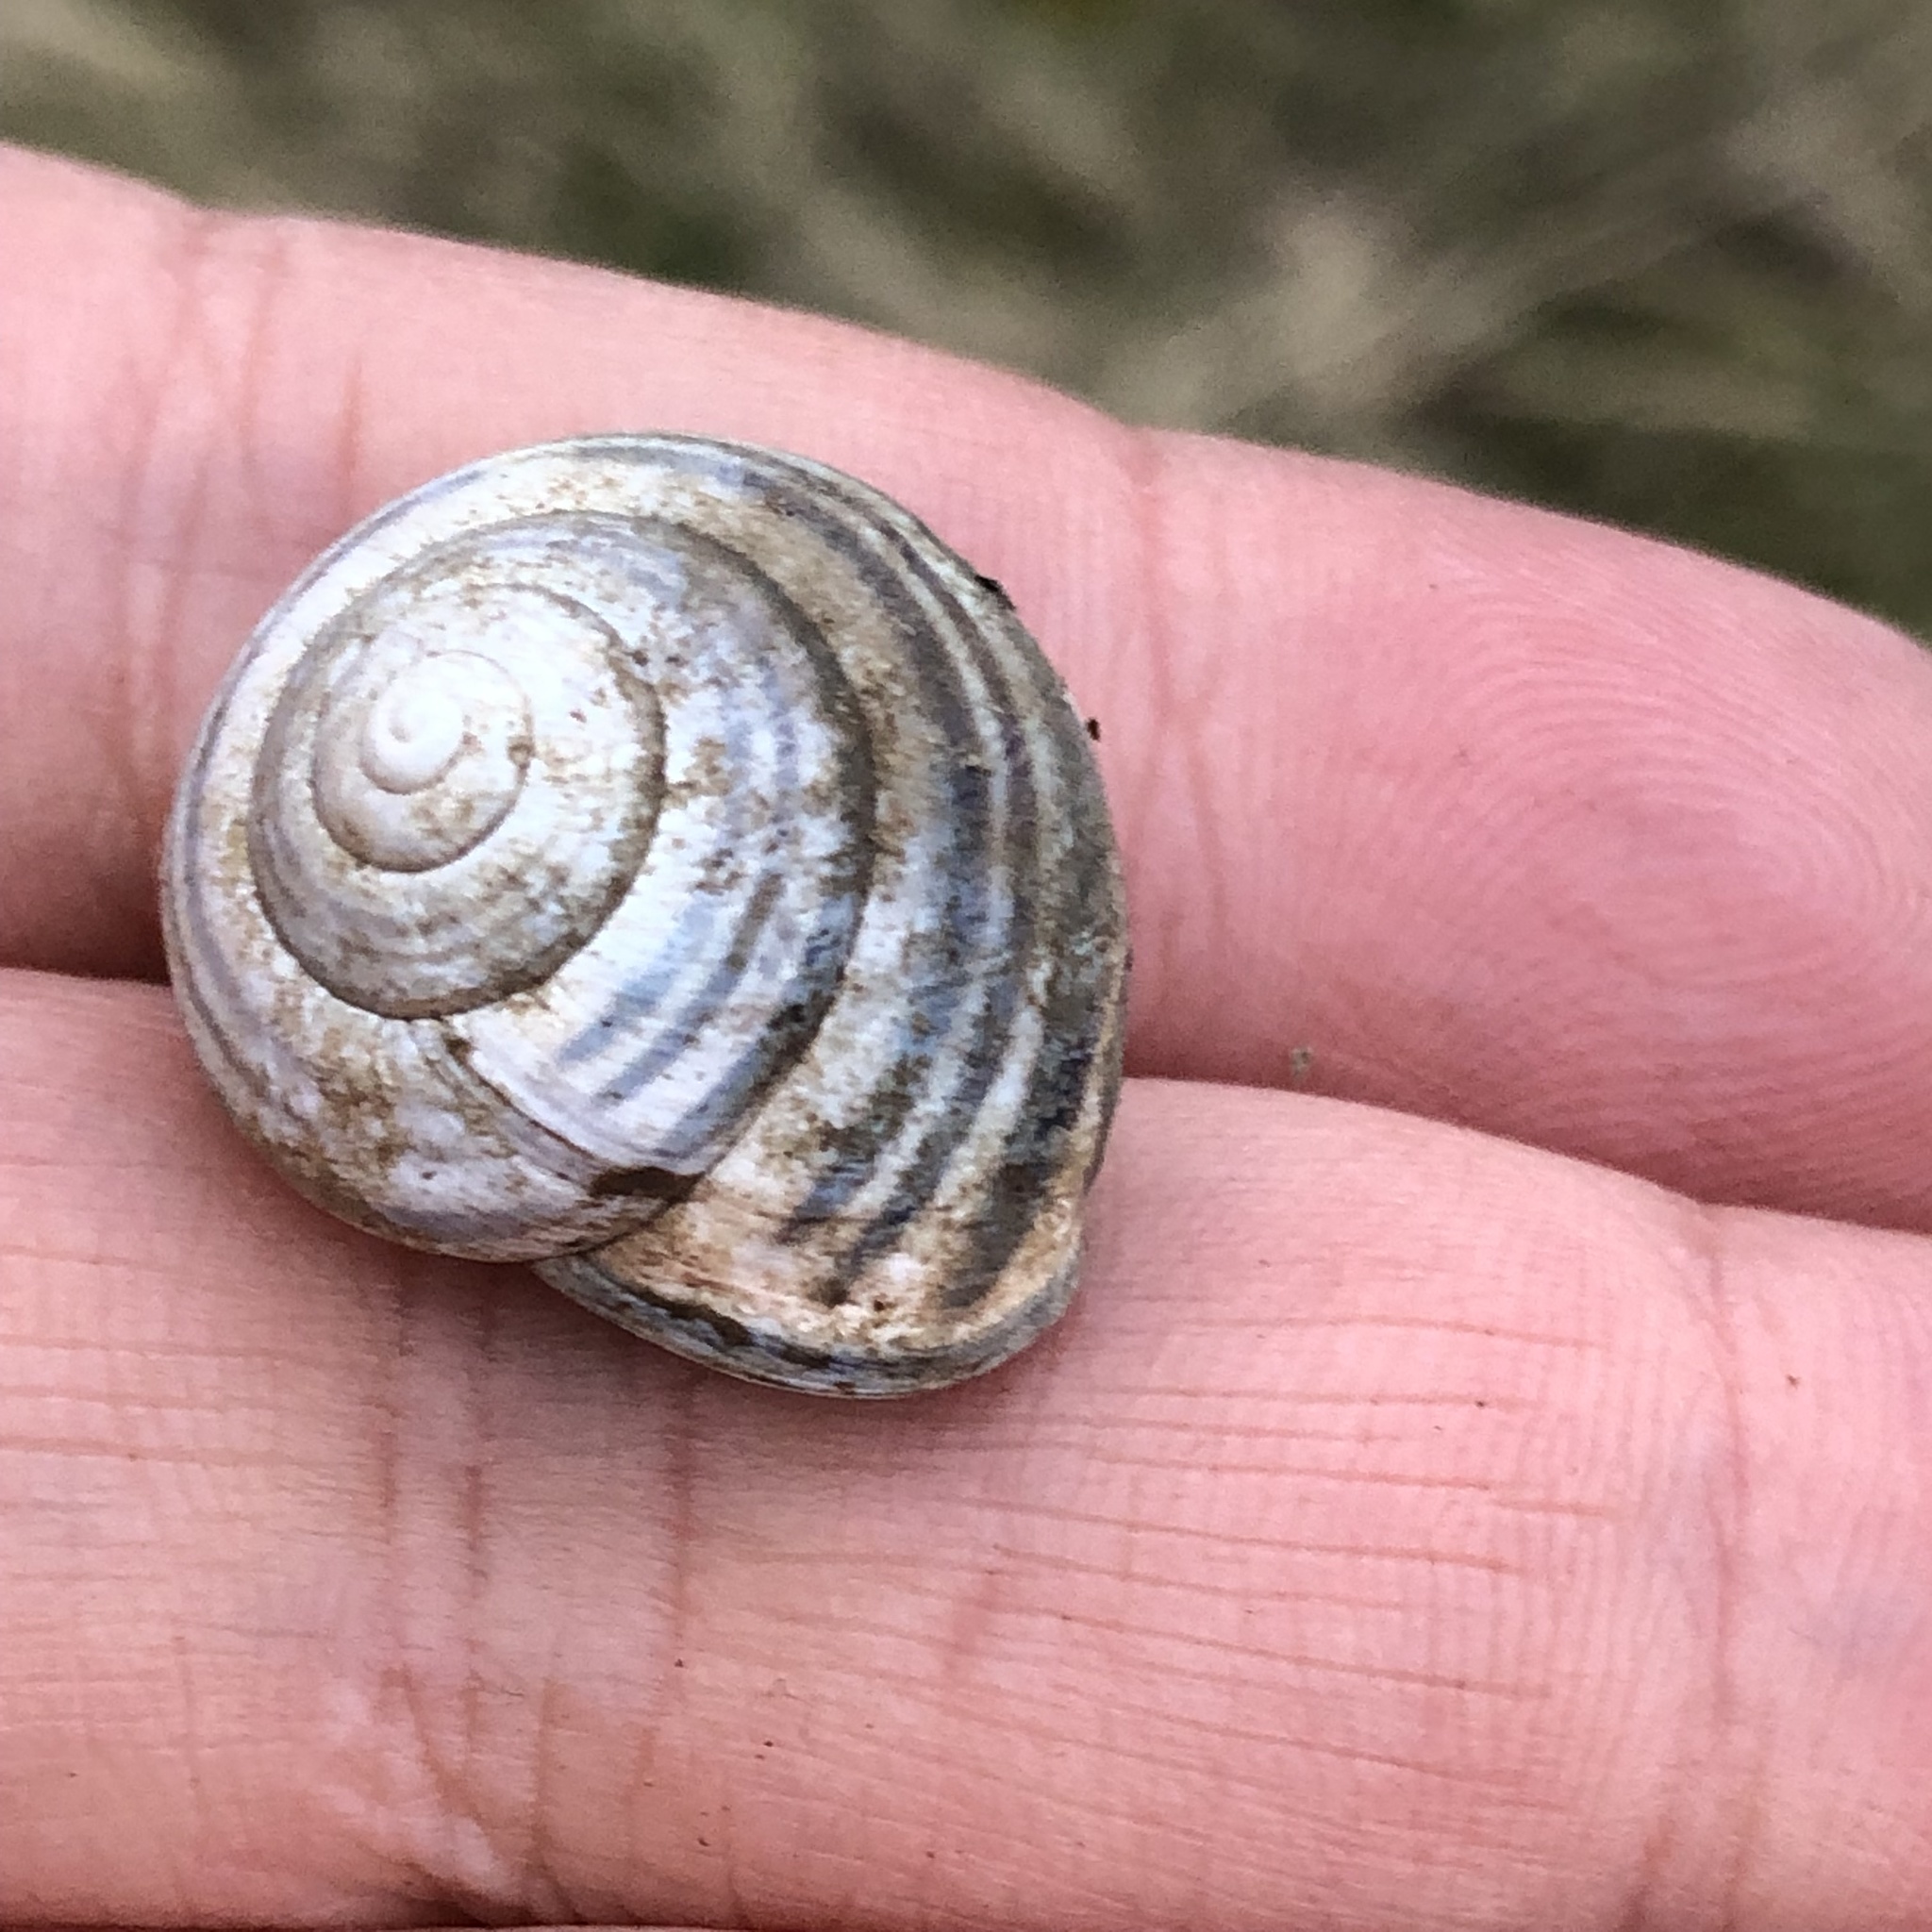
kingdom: Animalia
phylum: Mollusca
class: Gastropoda
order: Stylommatophora
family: Helicidae
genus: Cepaea
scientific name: Cepaea nemoralis
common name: Grovesnail
